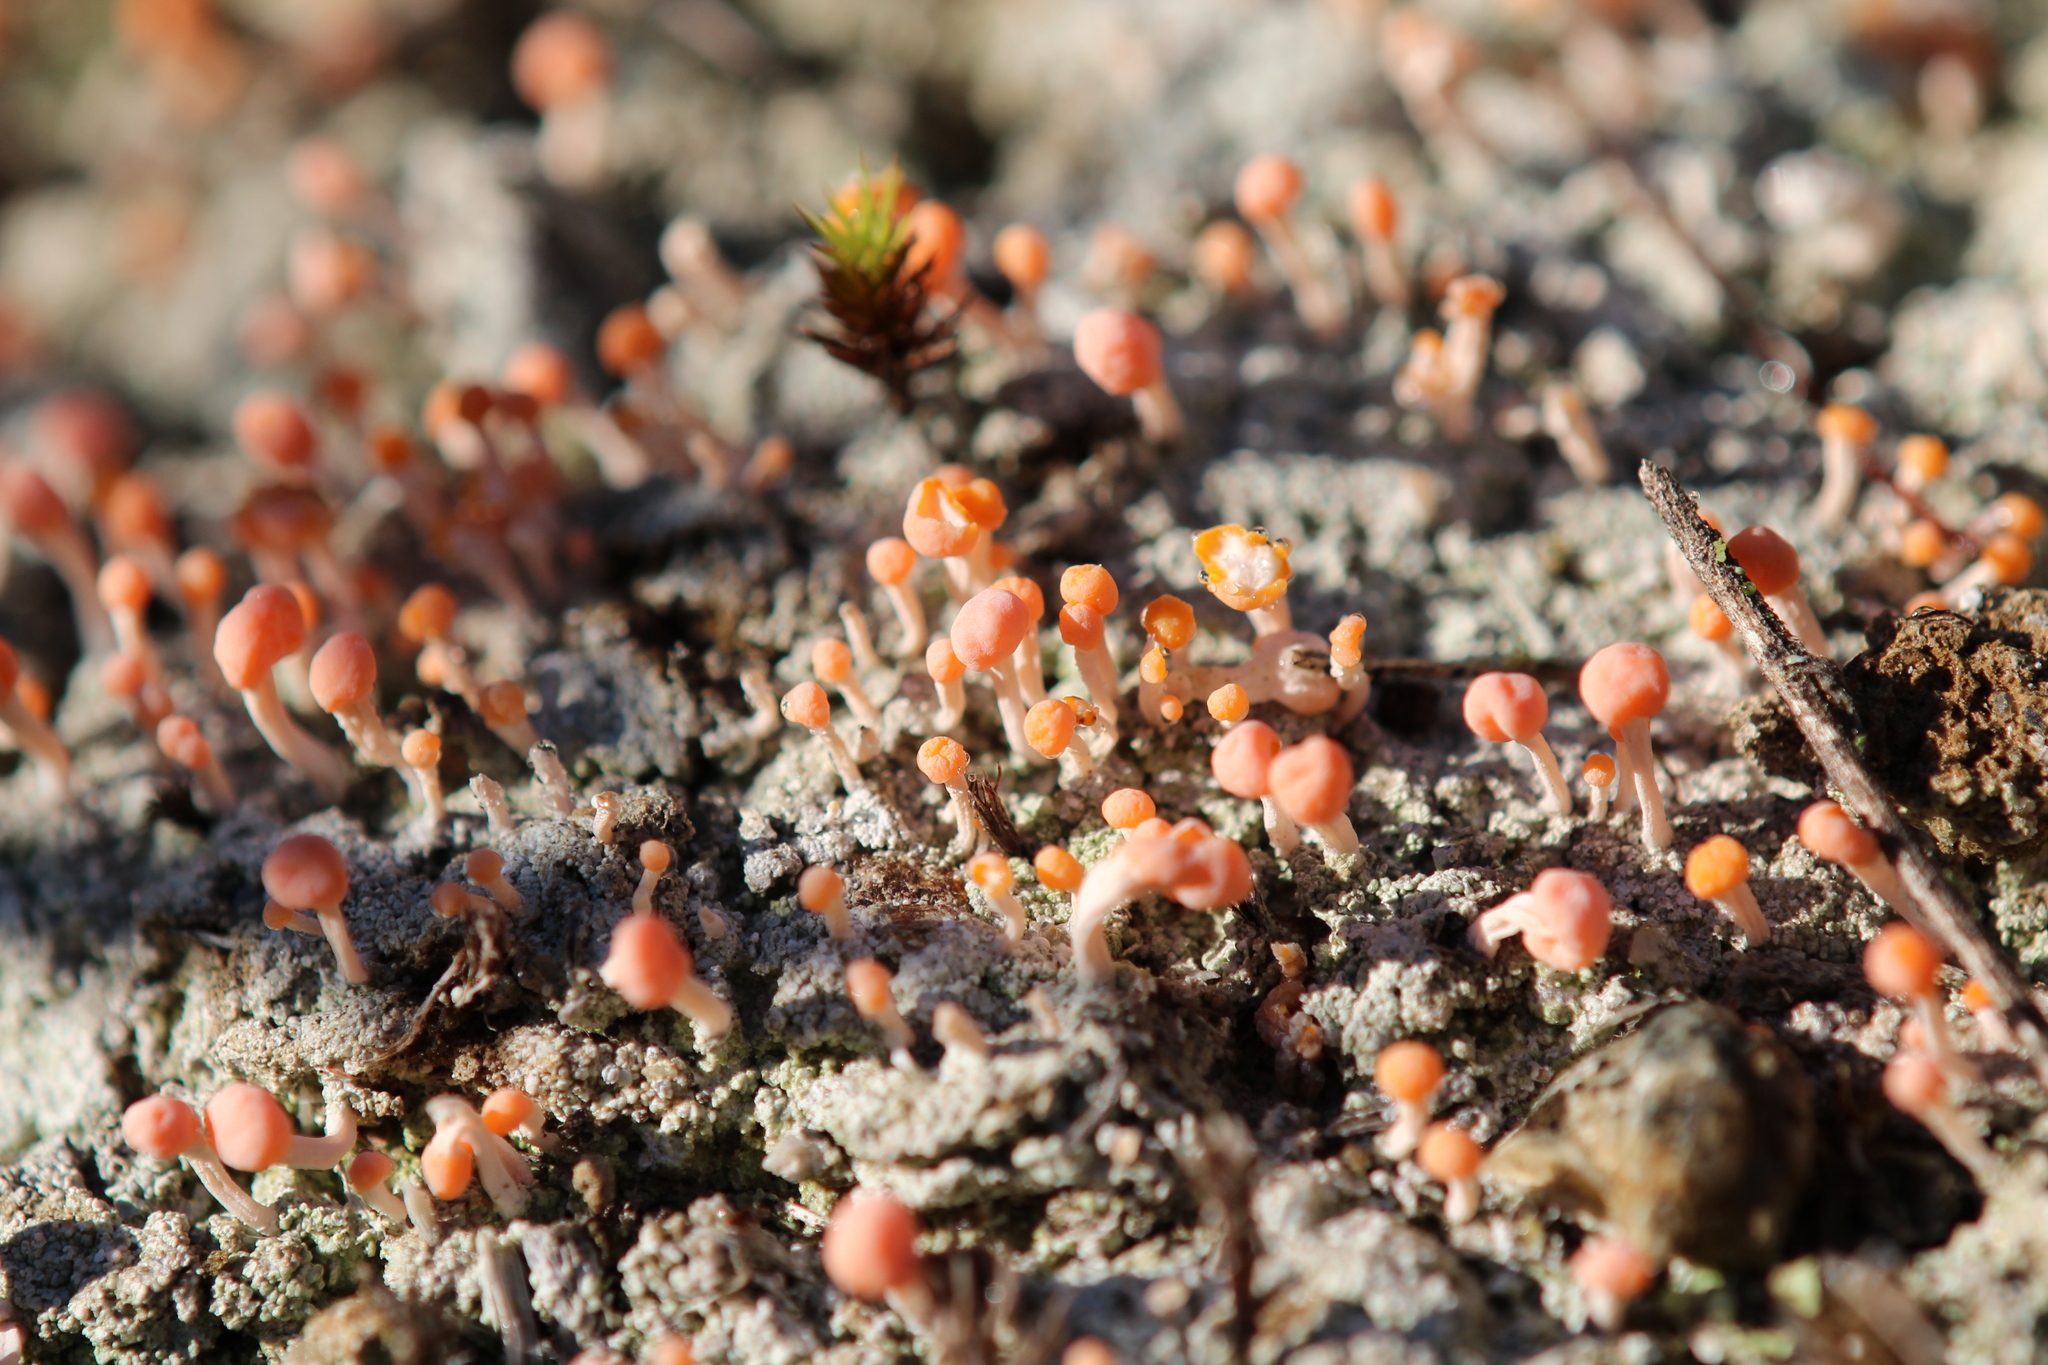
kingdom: Fungi
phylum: Ascomycota
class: Lecanoromycetes
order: Pertusariales
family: Icmadophilaceae
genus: Dibaeis
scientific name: Dibaeis baeomyces
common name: Pink earth lichen
